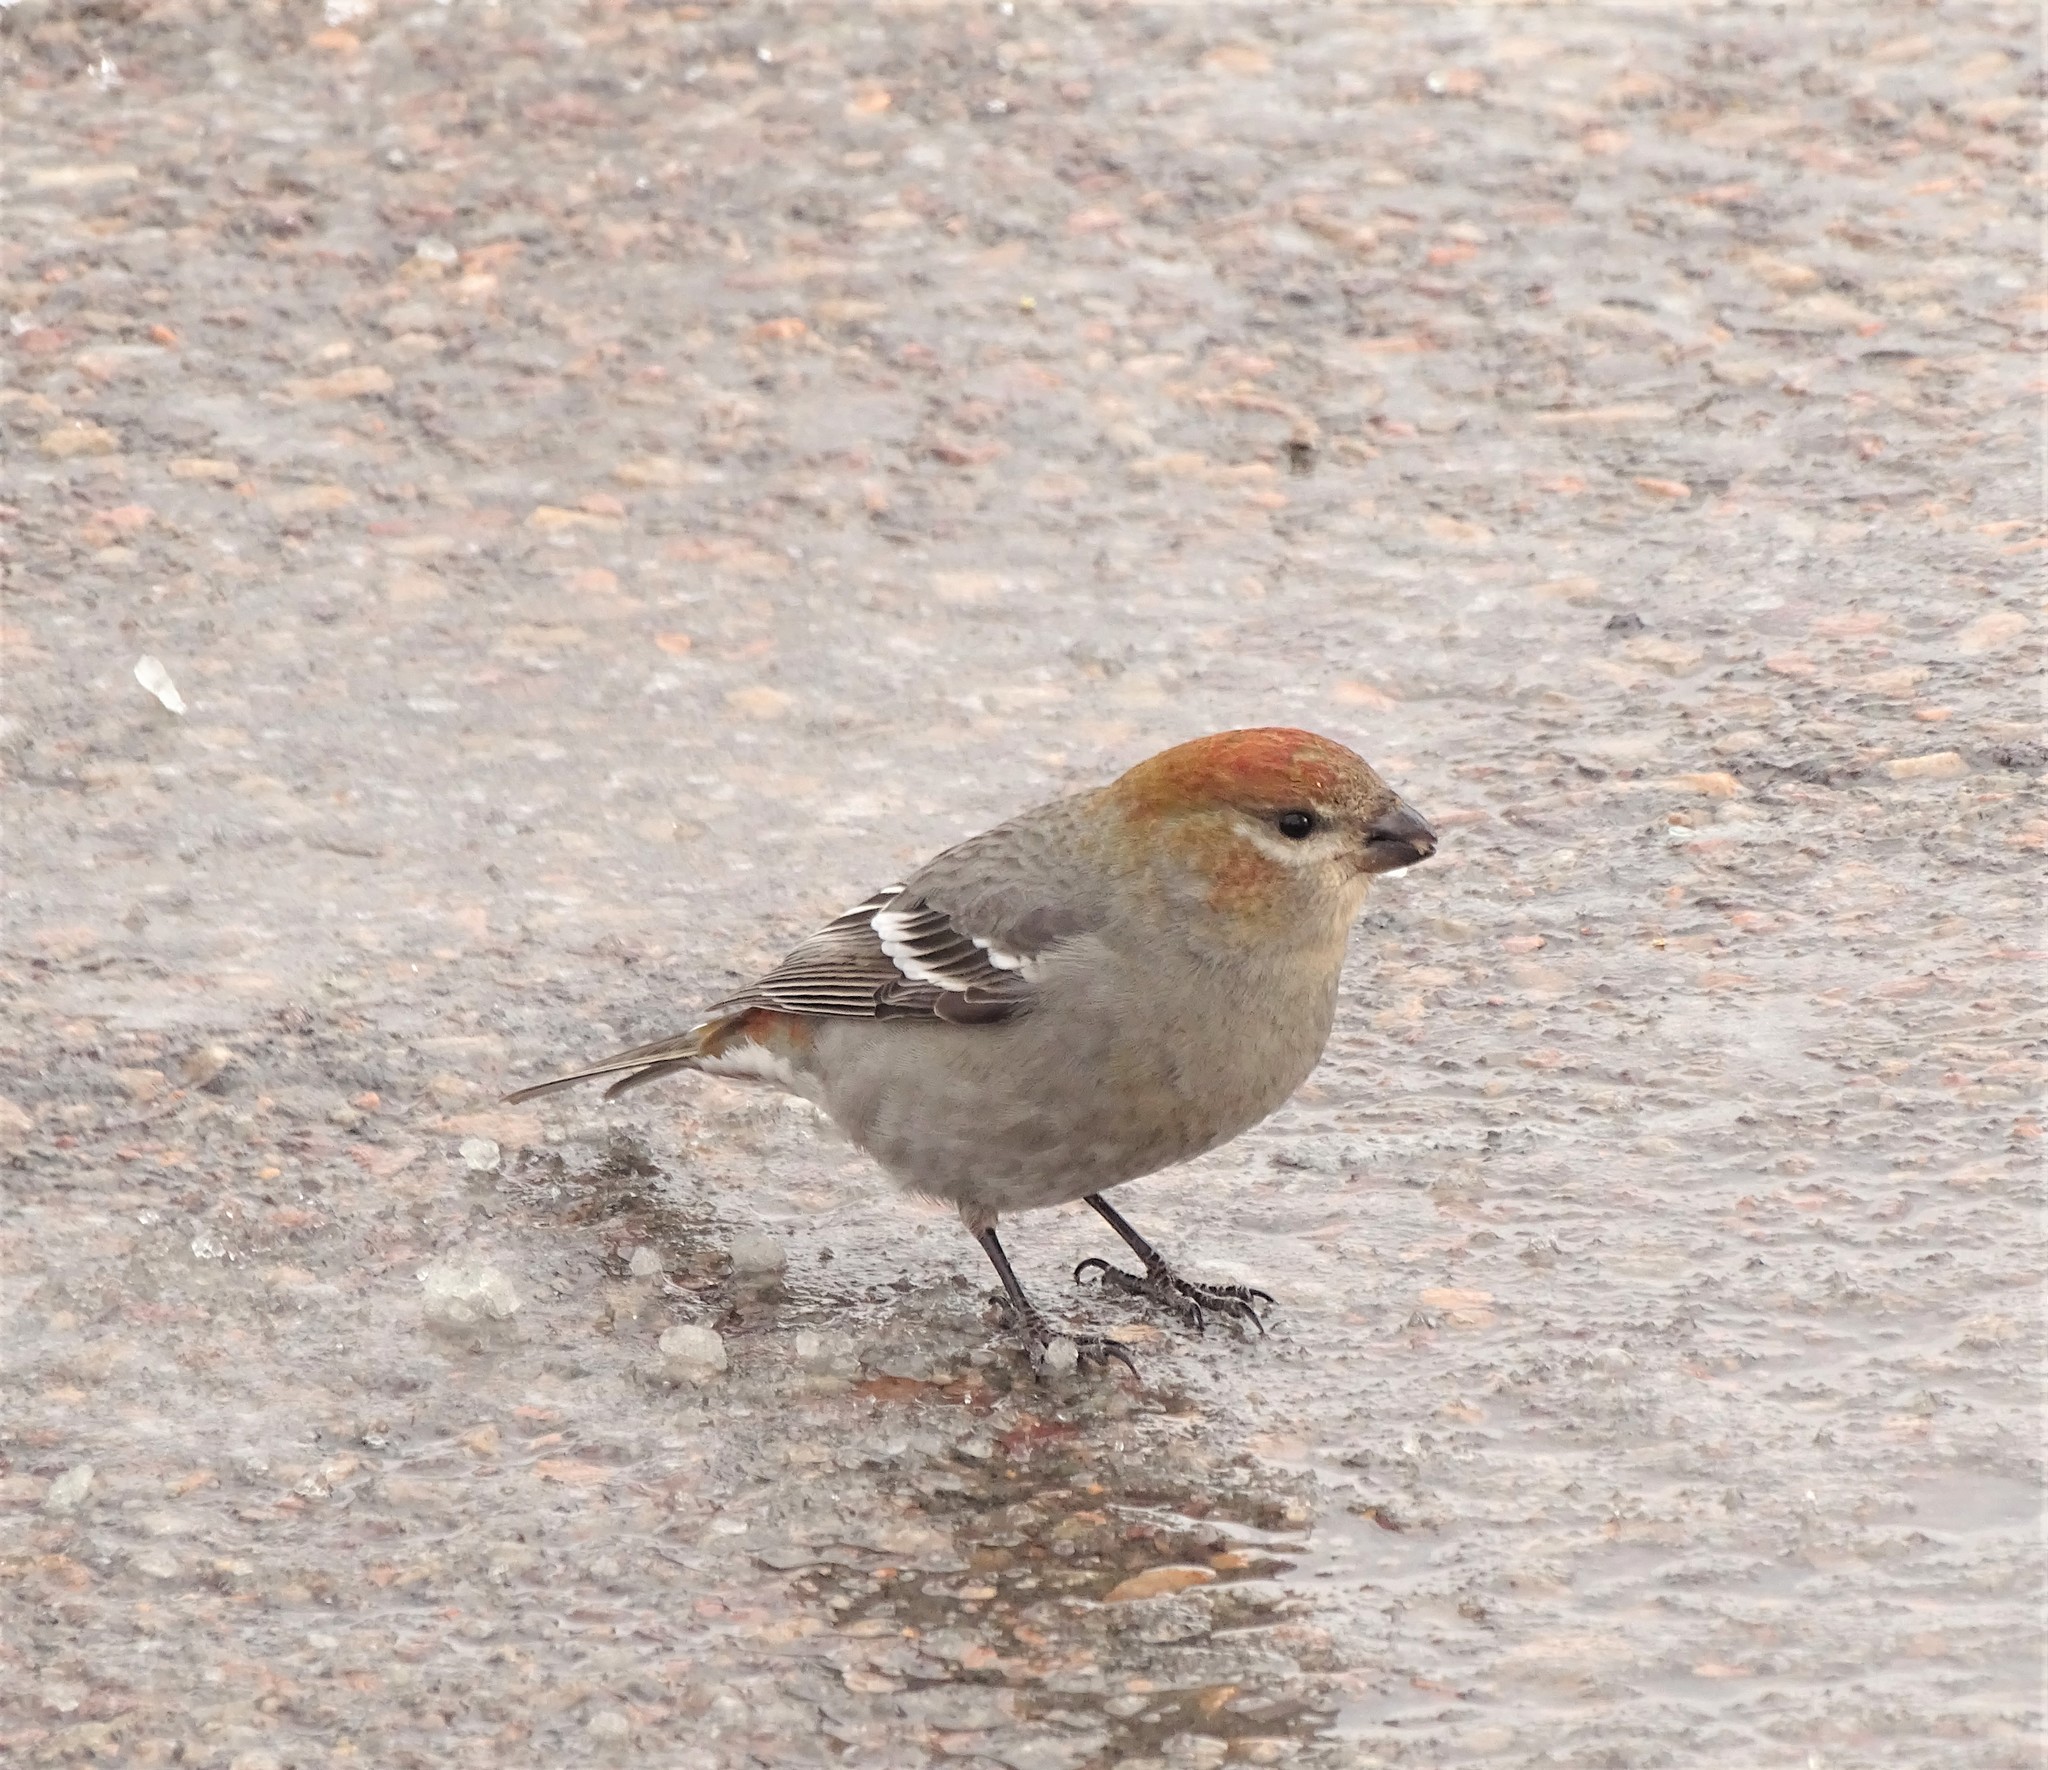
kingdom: Animalia
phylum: Chordata
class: Aves
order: Passeriformes
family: Fringillidae
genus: Pinicola
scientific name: Pinicola enucleator
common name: Pine grosbeak
